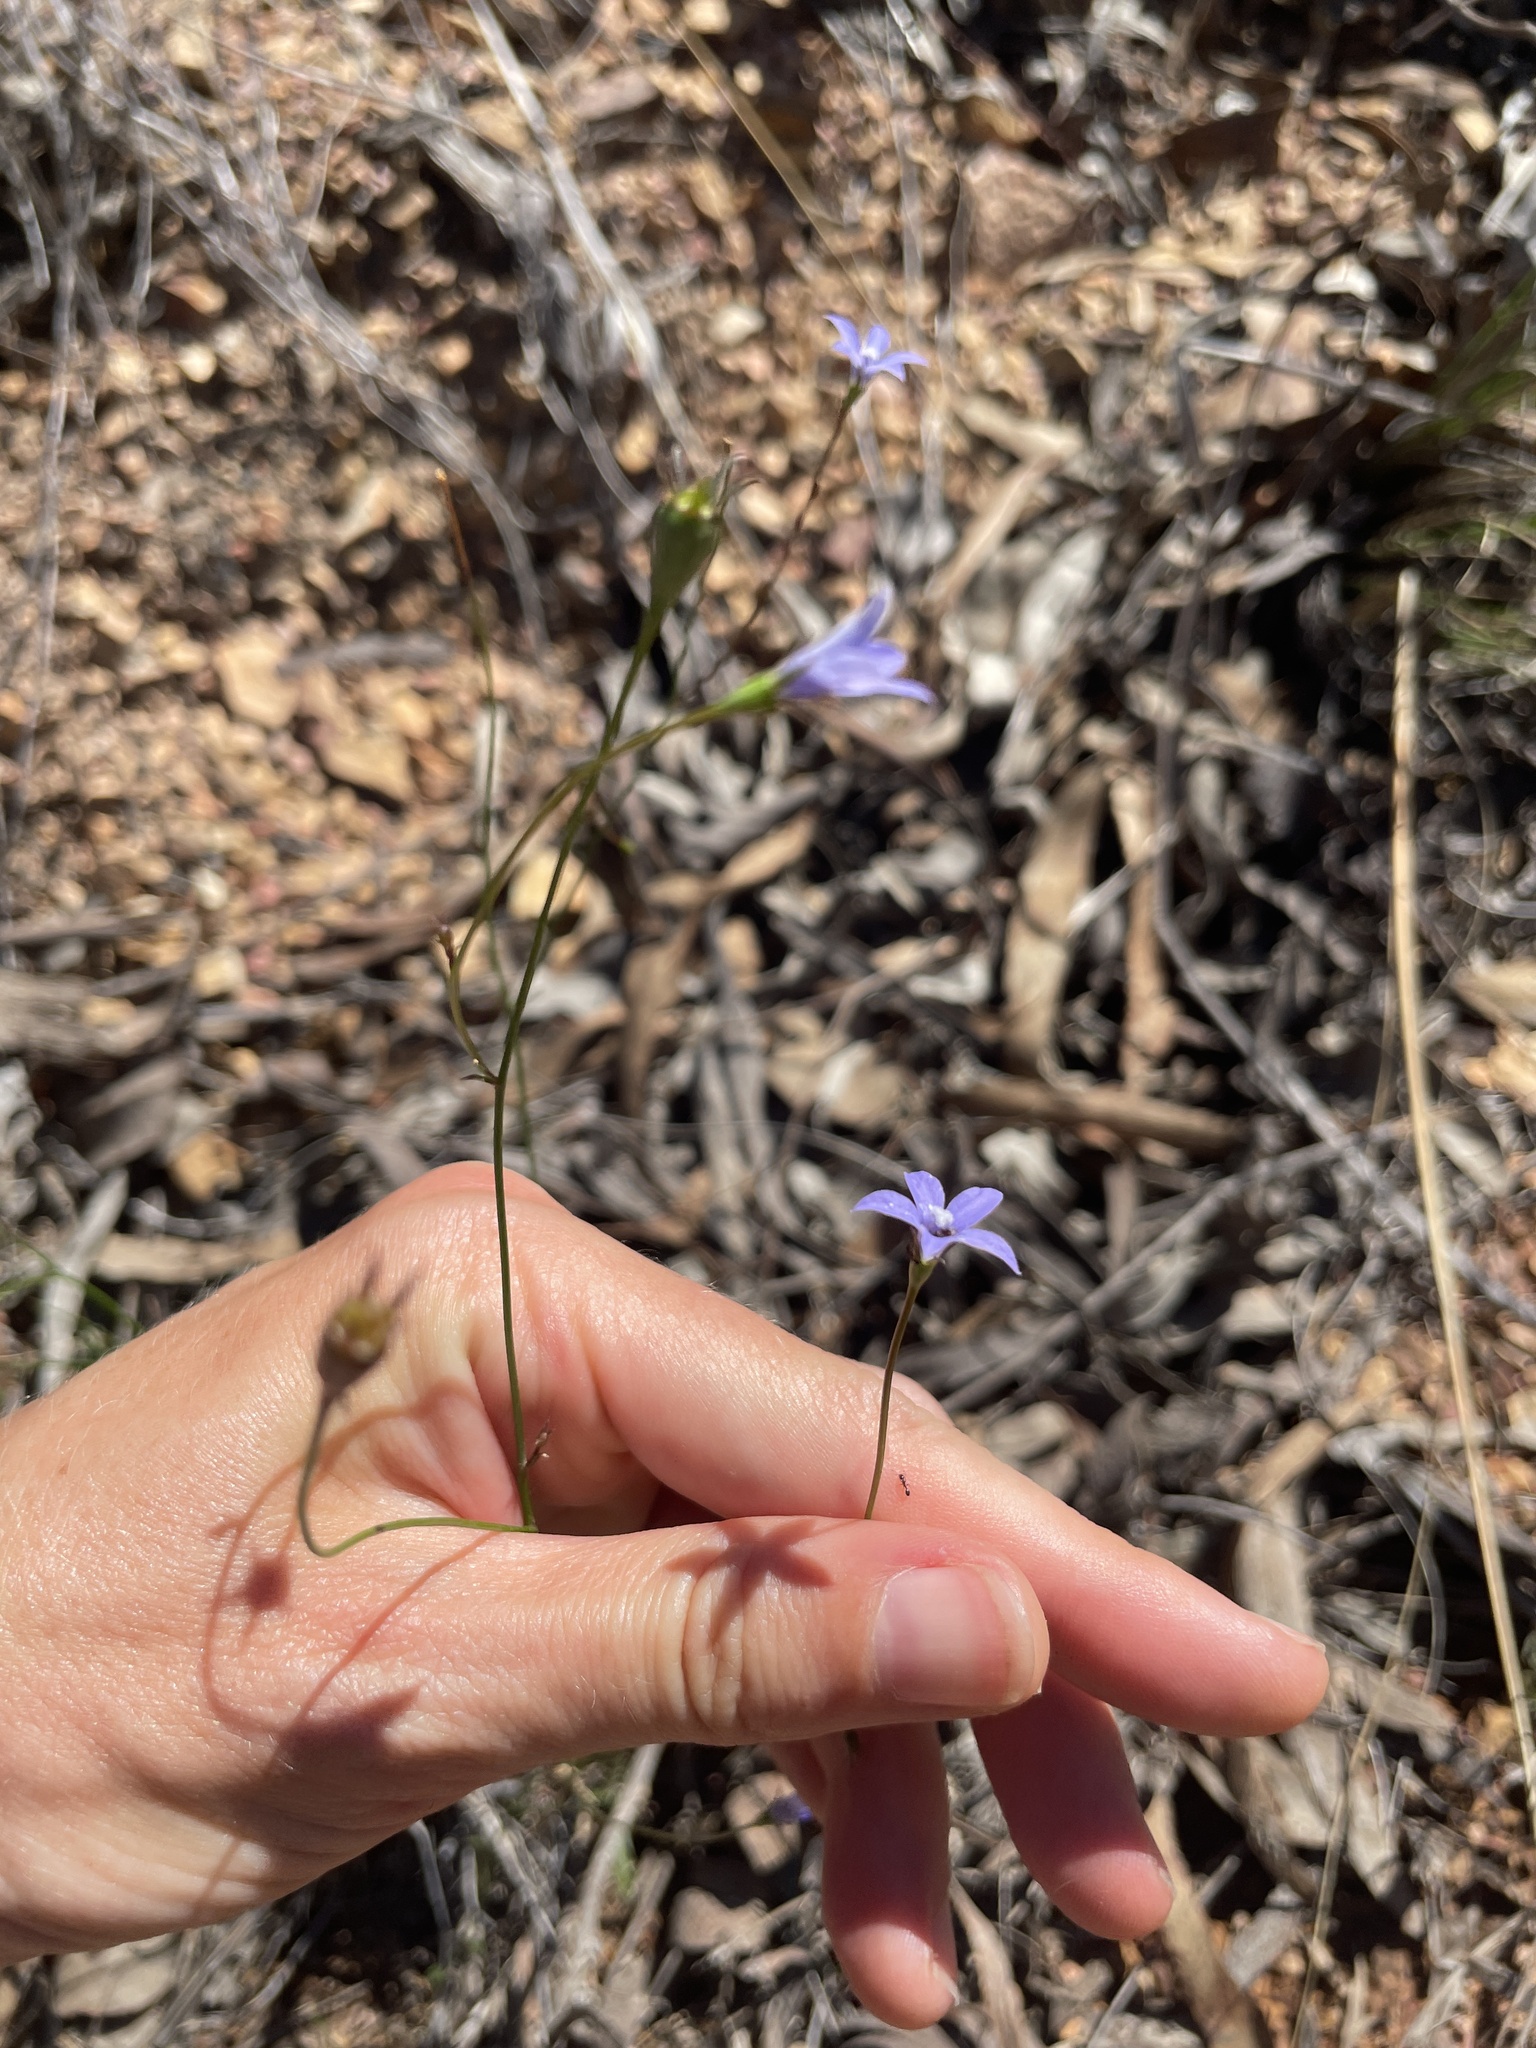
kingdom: Plantae
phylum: Tracheophyta
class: Magnoliopsida
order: Asterales
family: Campanulaceae
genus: Wahlenbergia
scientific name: Wahlenbergia
